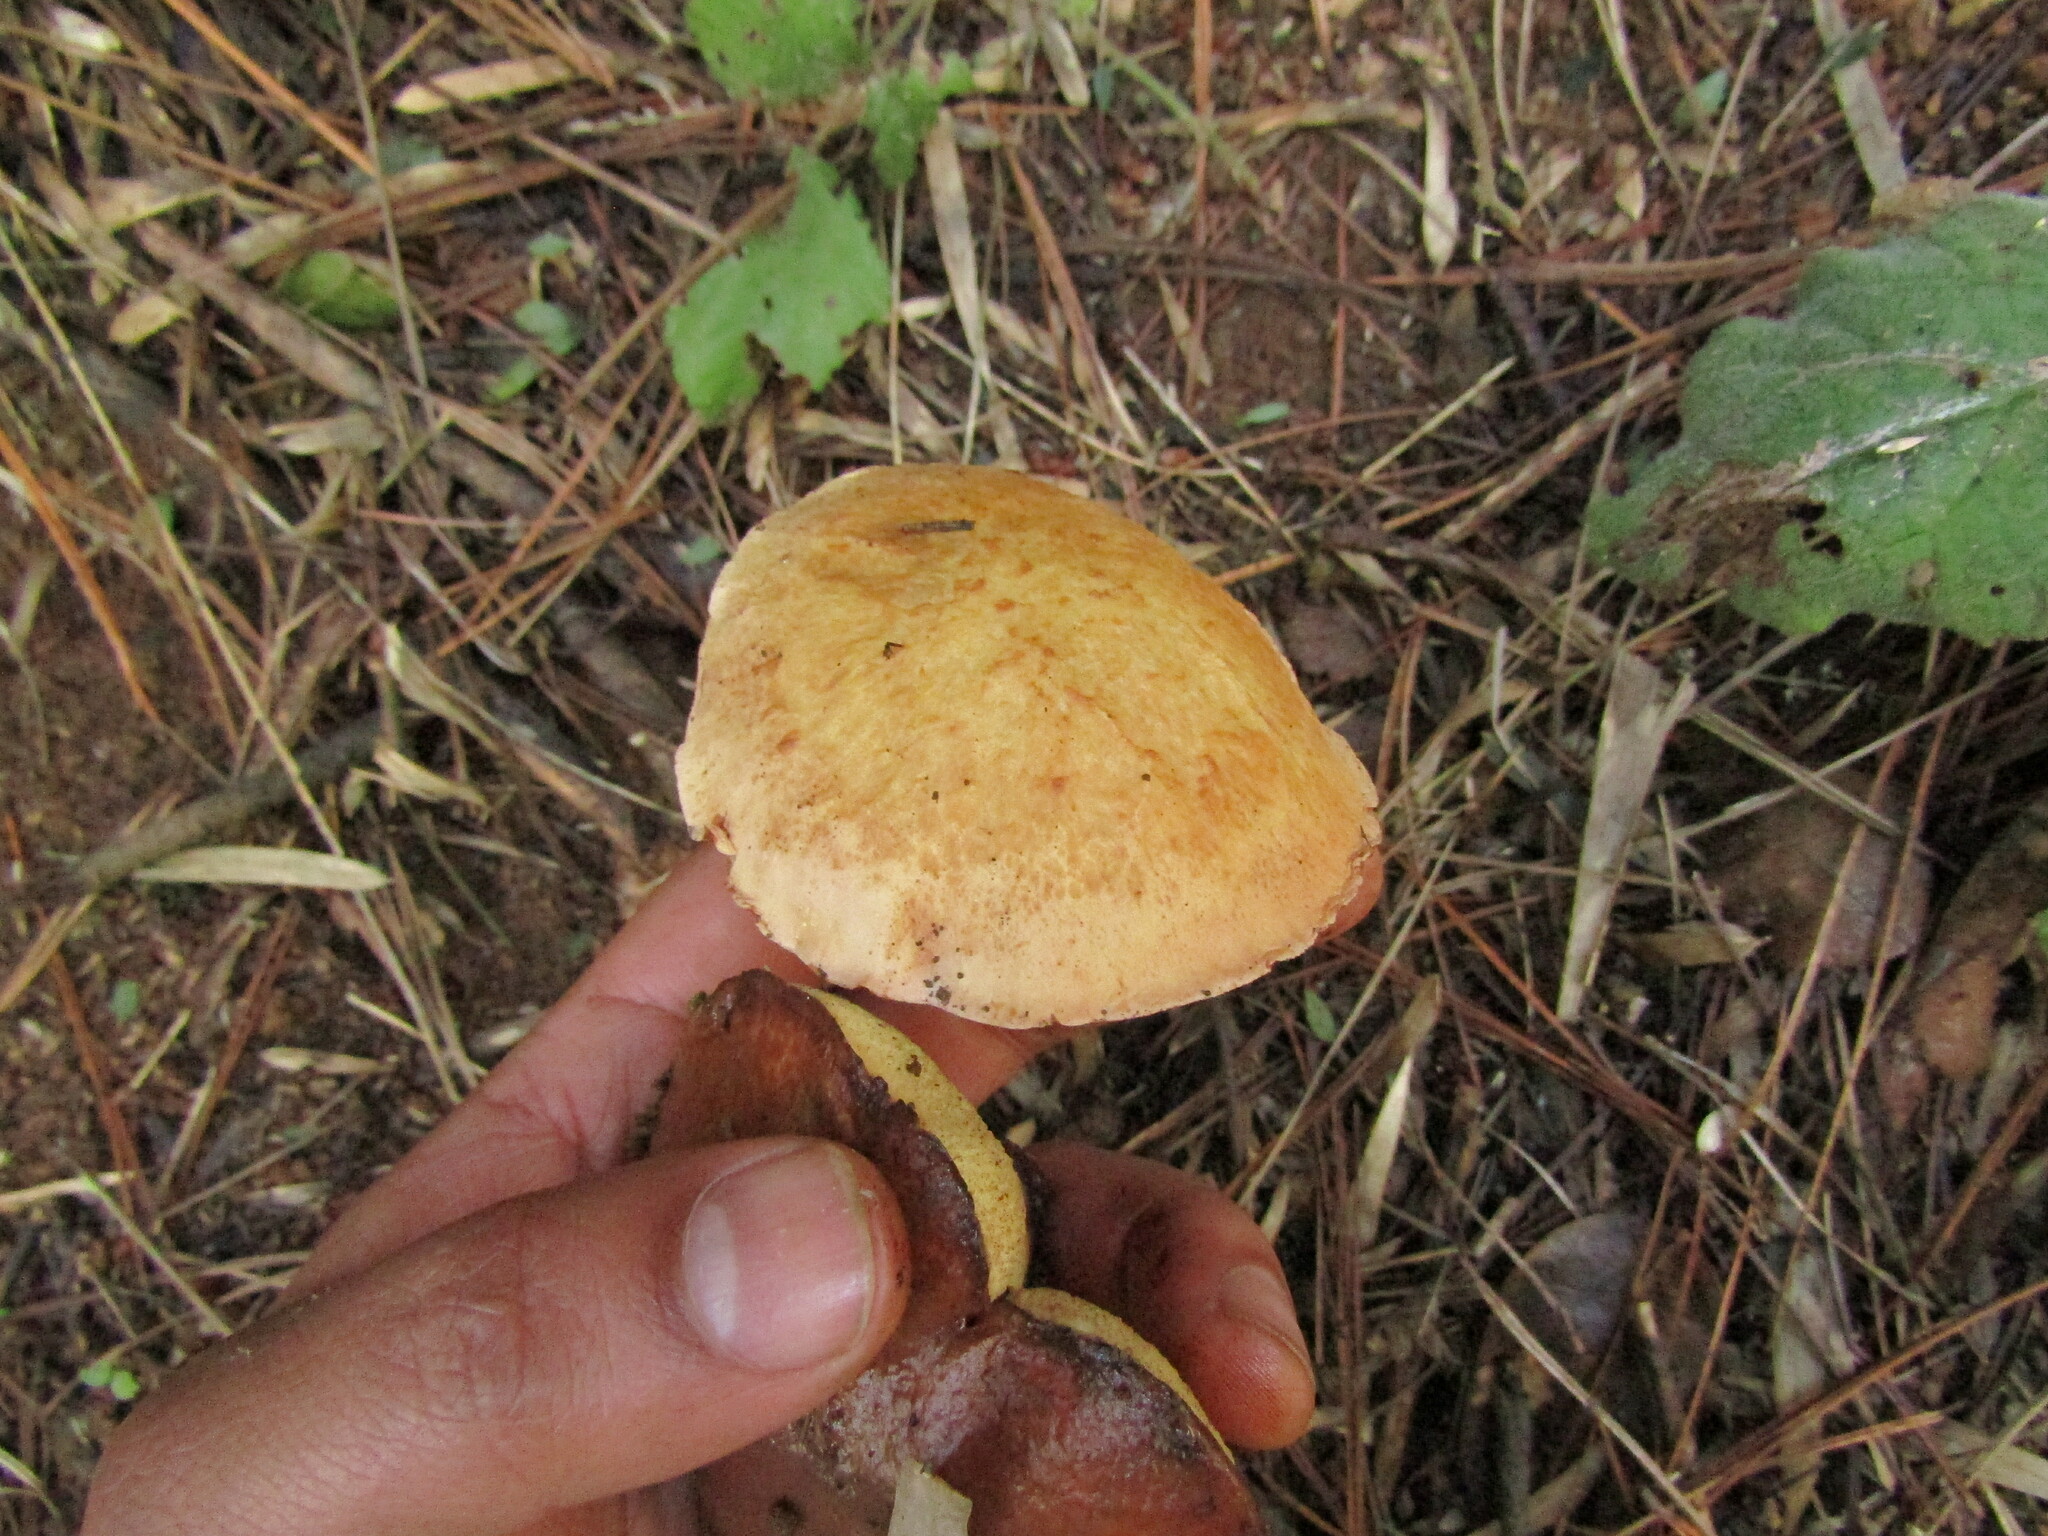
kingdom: Fungi
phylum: Basidiomycota
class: Agaricomycetes
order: Boletales
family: Boletaceae
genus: Chalciporus
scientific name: Chalciporus piperatus
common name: Peppery bolete
